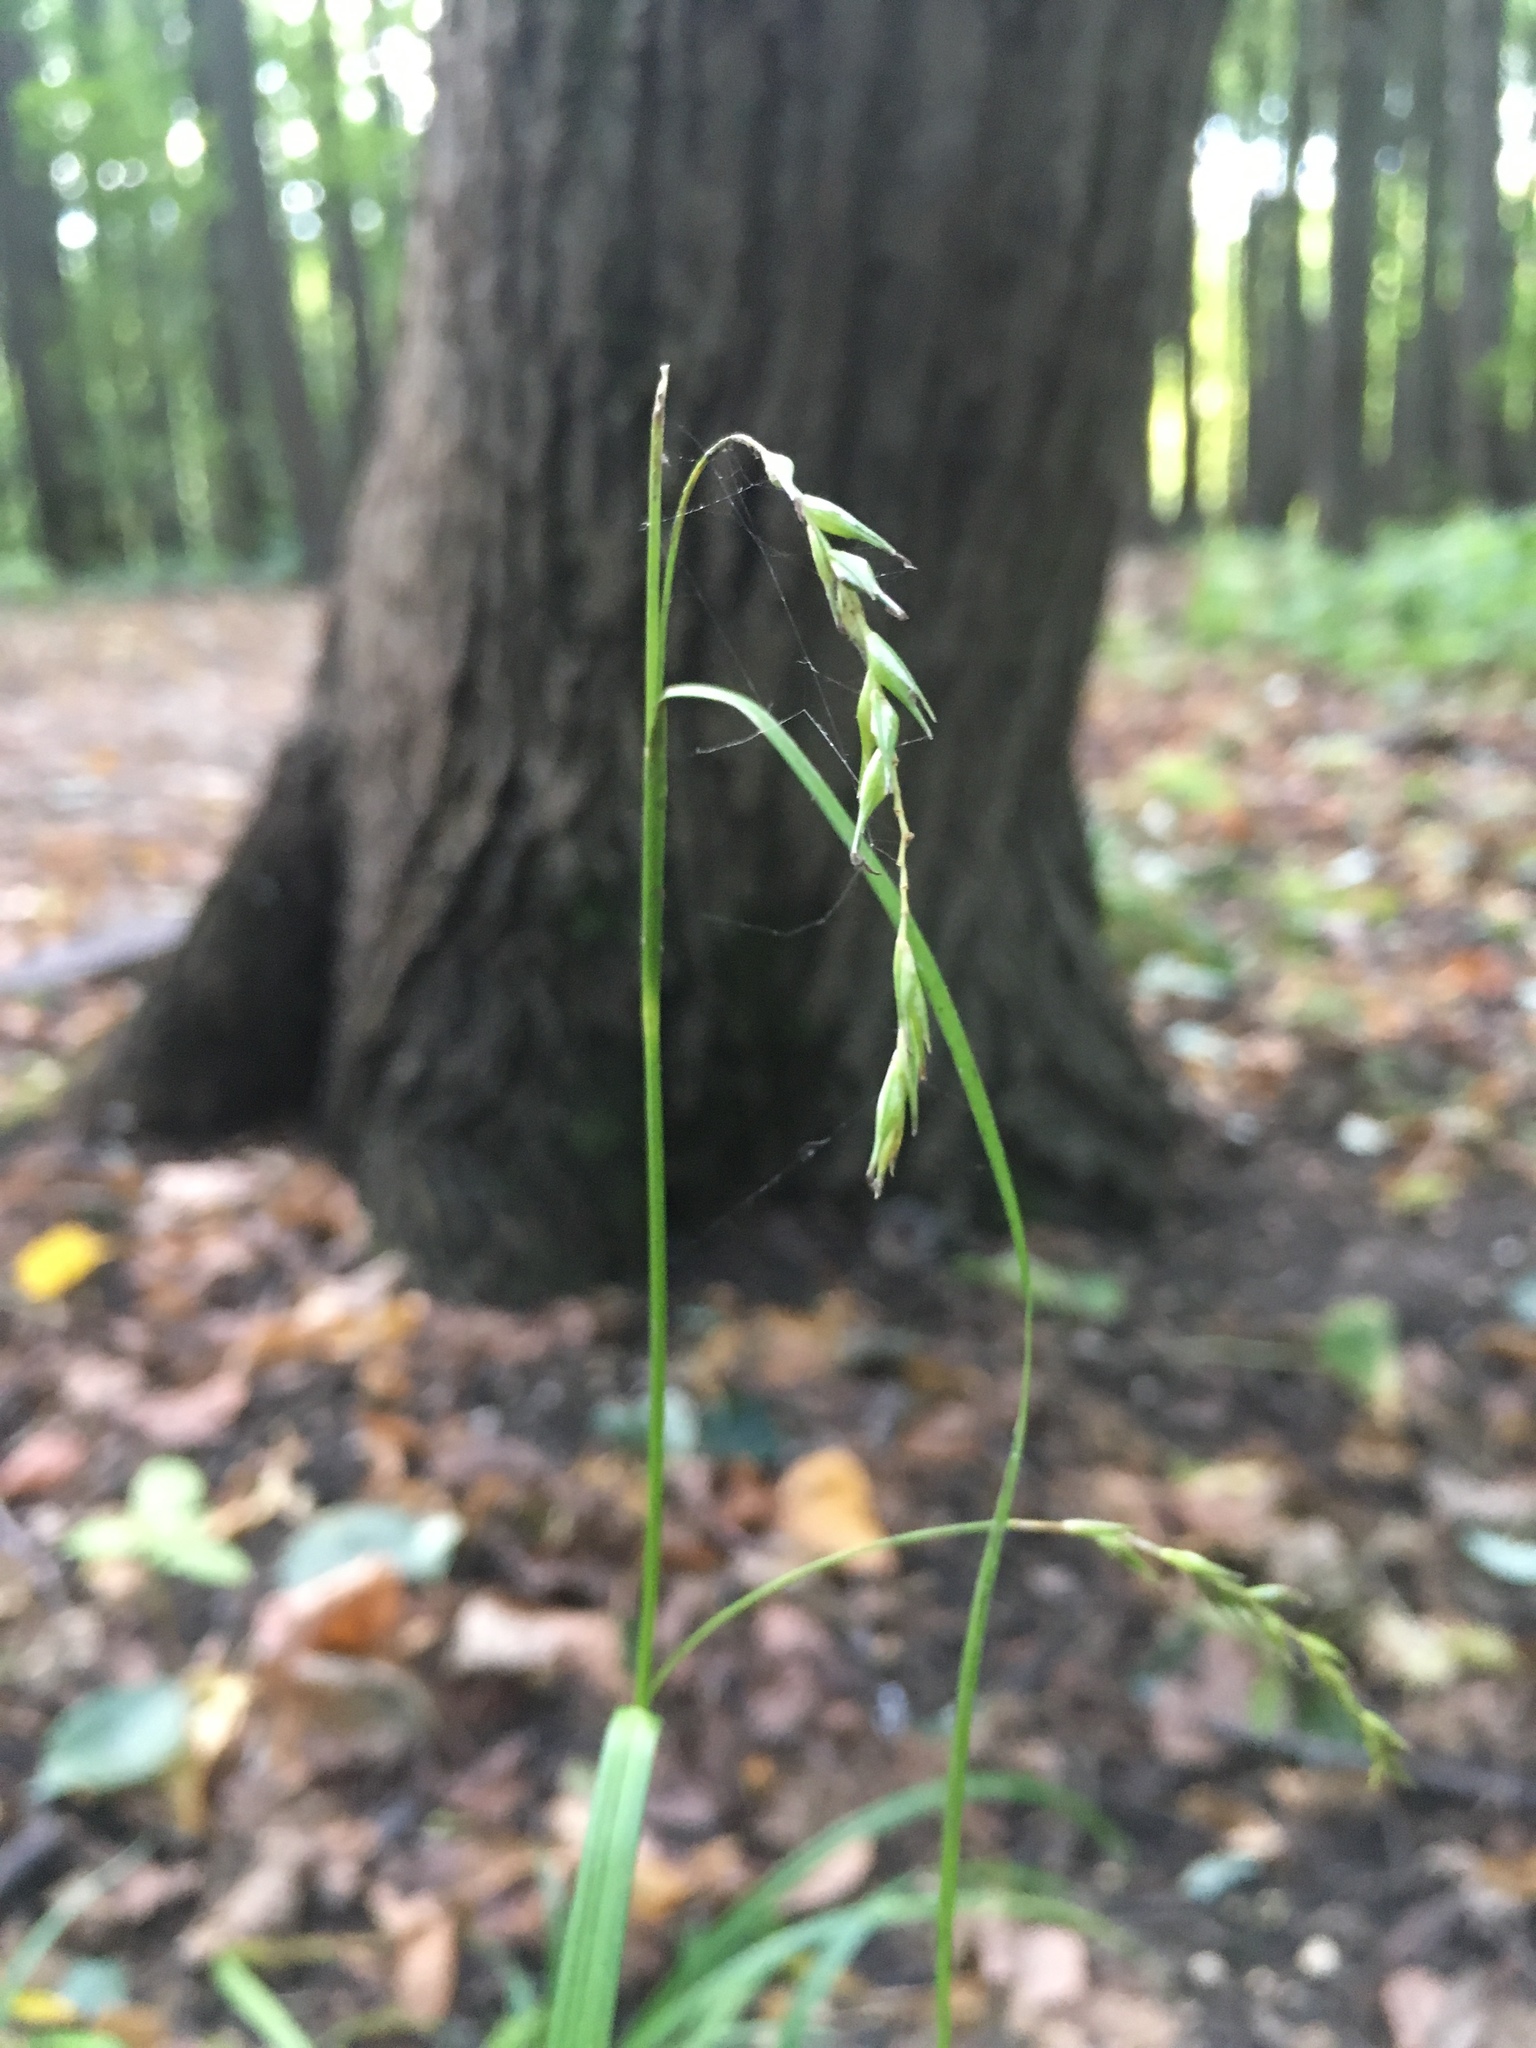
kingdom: Plantae
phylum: Tracheophyta
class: Liliopsida
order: Poales
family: Cyperaceae
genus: Carex
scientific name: Carex sylvatica
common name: Wood-sedge
